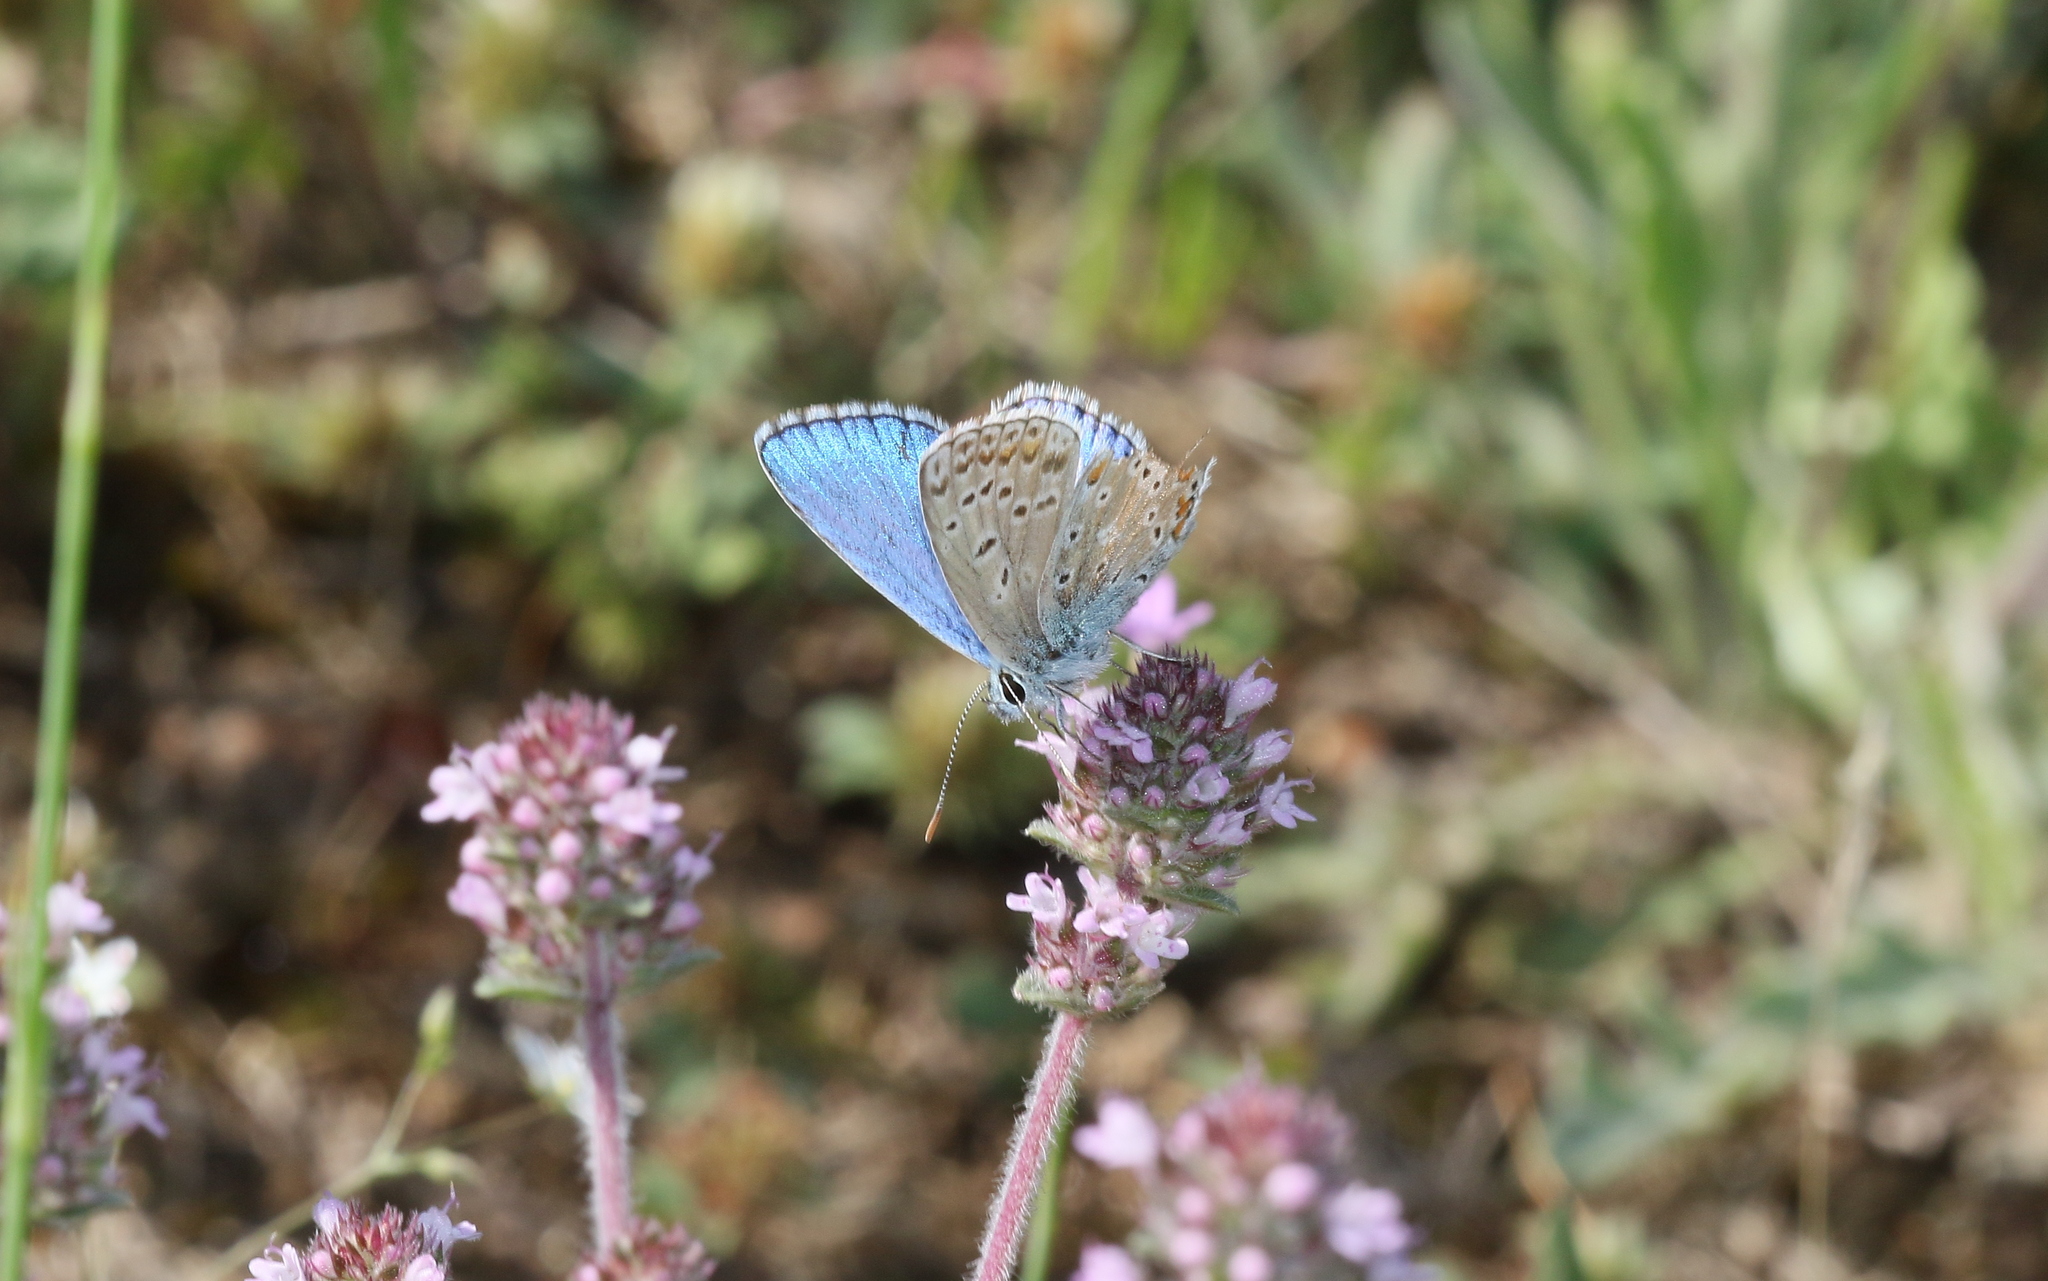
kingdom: Animalia
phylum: Arthropoda
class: Insecta
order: Lepidoptera
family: Lycaenidae
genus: Lysandra
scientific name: Lysandra bellargus
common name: Adonis blue
